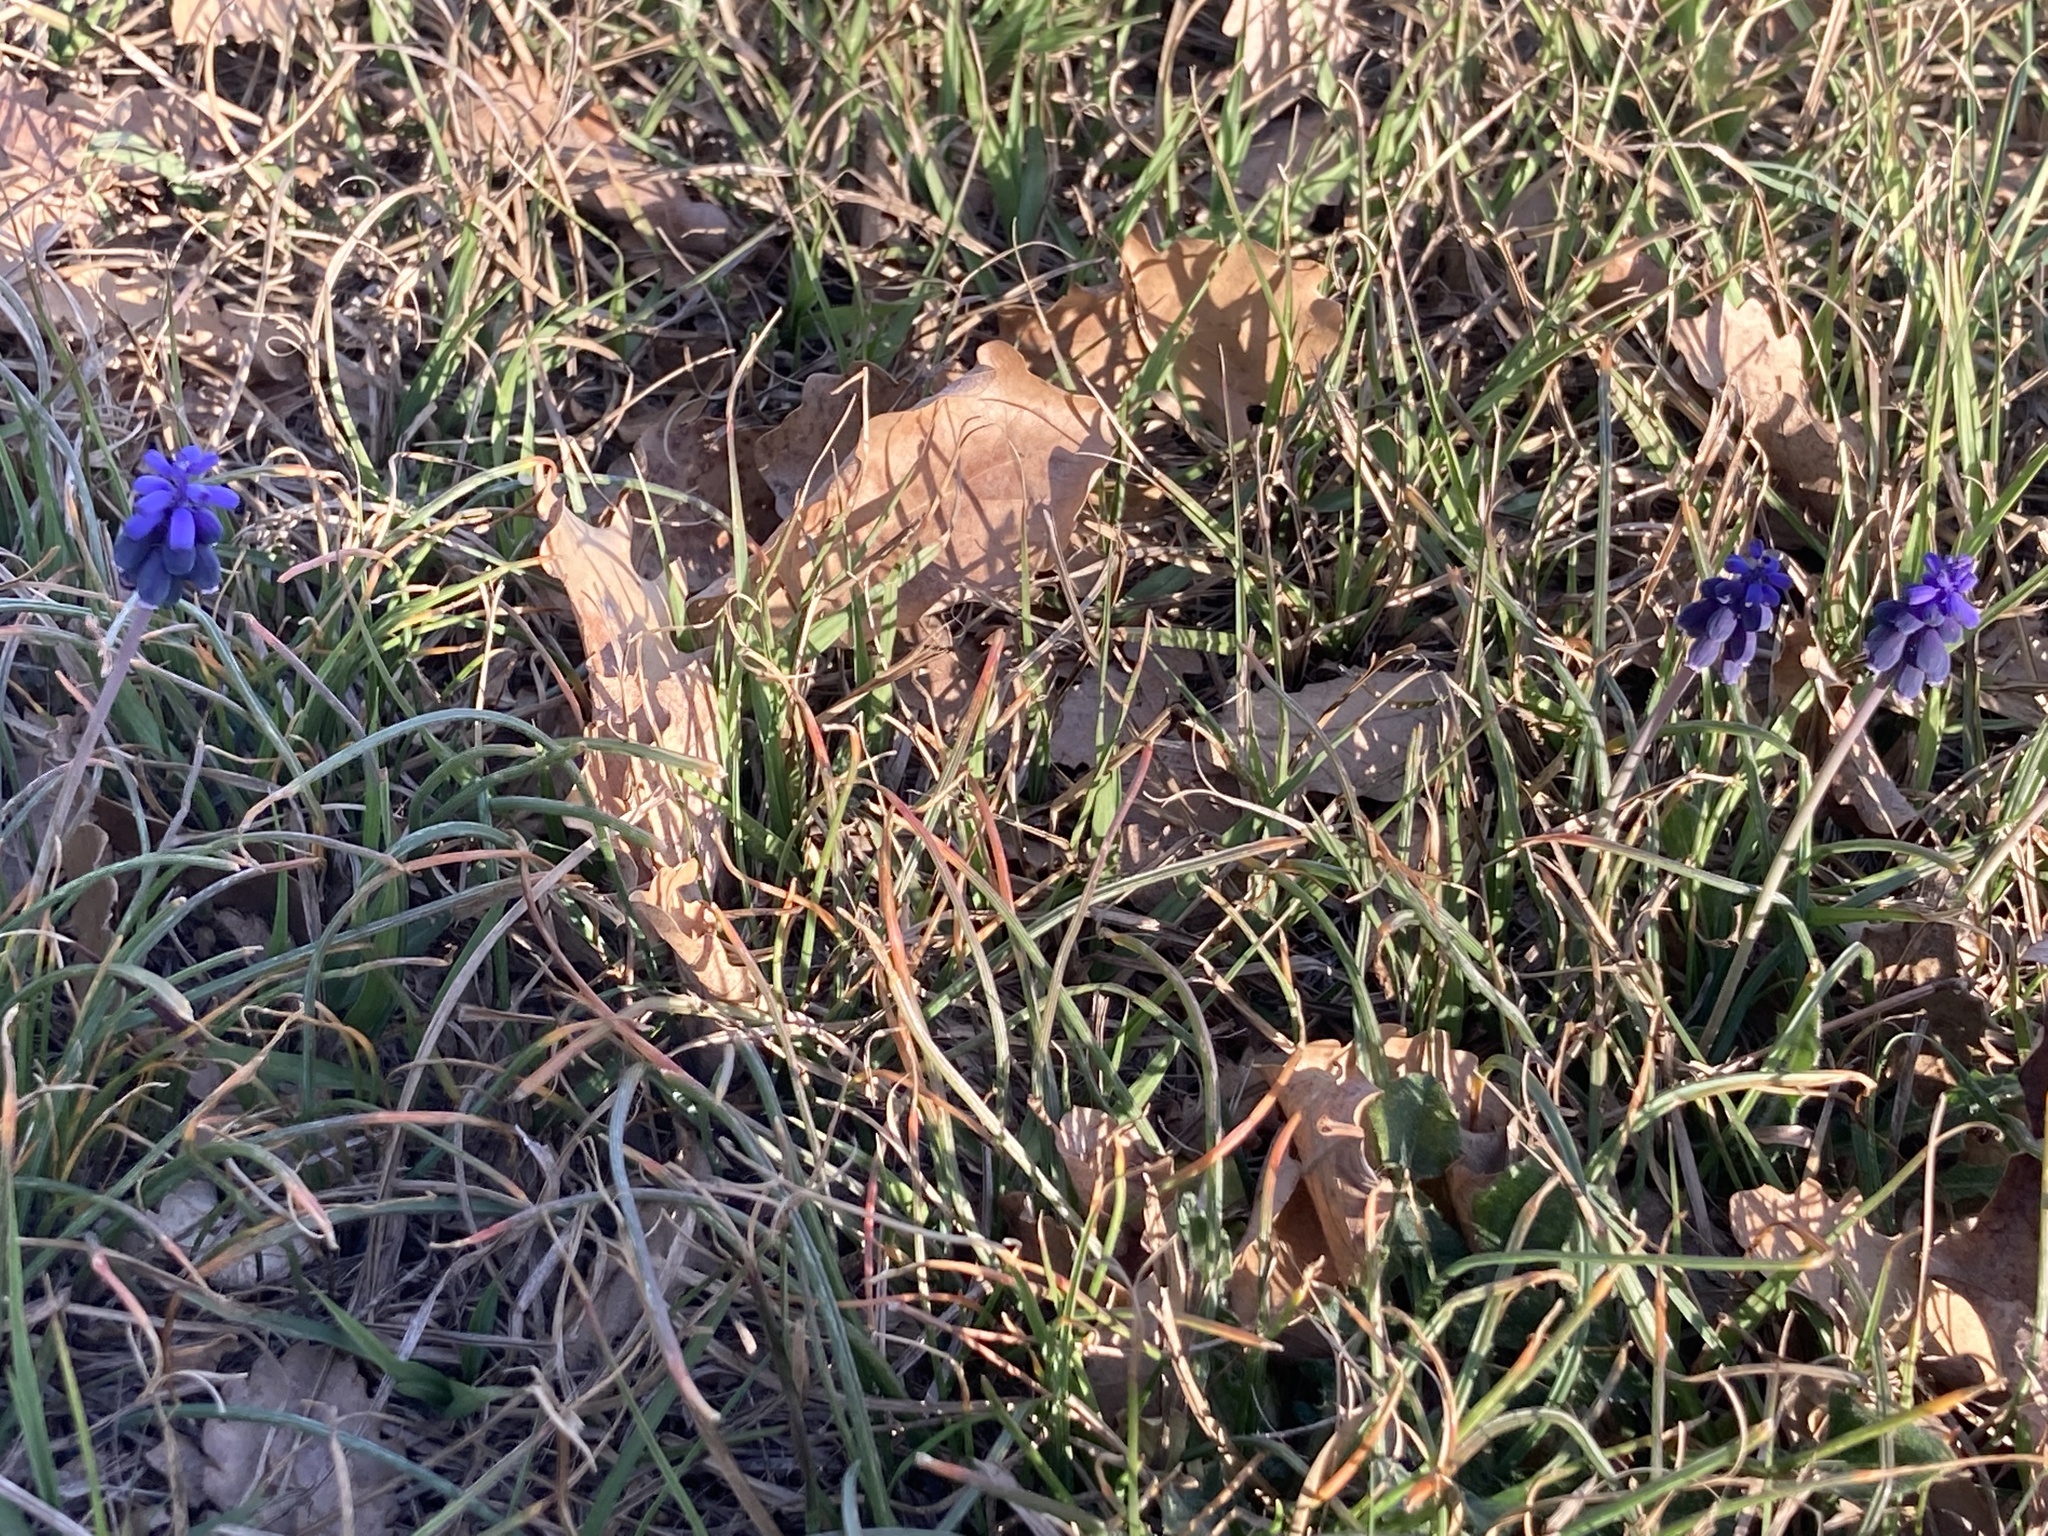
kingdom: Plantae
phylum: Tracheophyta
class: Liliopsida
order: Asparagales
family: Asparagaceae
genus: Muscari
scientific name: Muscari neglectum
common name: Grape-hyacinth
